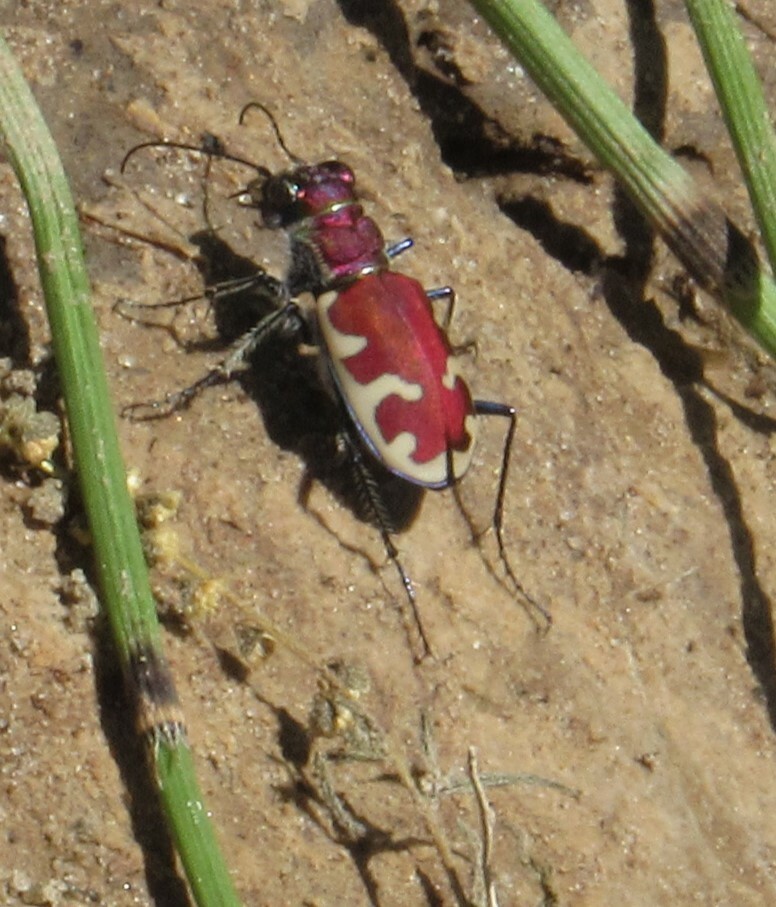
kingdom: Animalia
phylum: Arthropoda
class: Insecta
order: Coleoptera
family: Carabidae
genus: Cicindela
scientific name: Cicindela formosa
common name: Big sand tiger beetle
